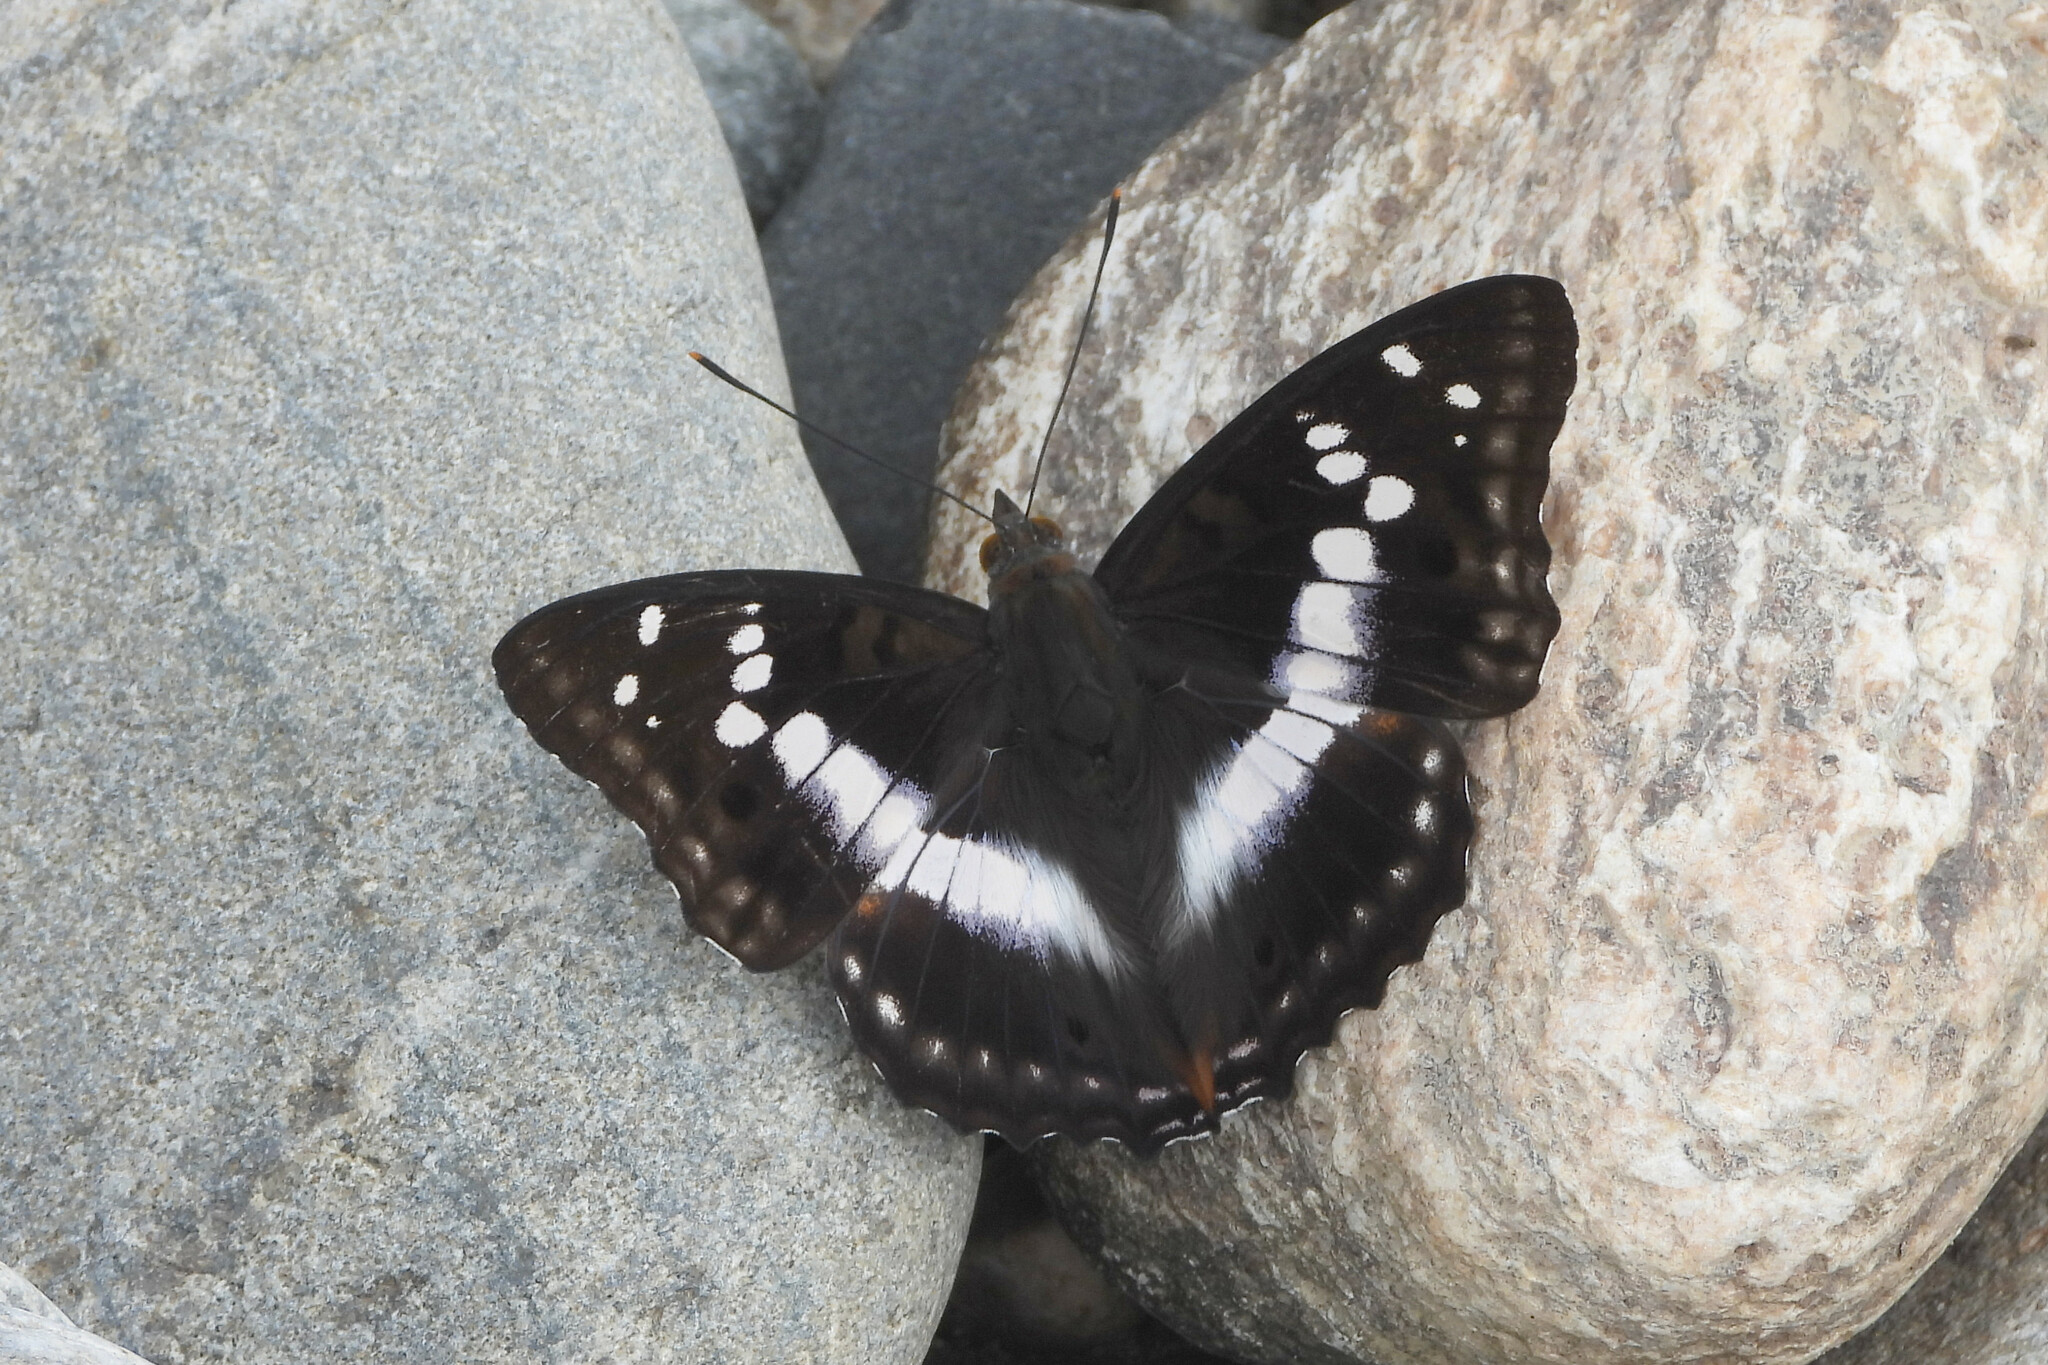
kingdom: Animalia
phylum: Arthropoda
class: Insecta
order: Lepidoptera
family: Nymphalidae
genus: Apatura
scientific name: Apatura Mimathyma ambica
